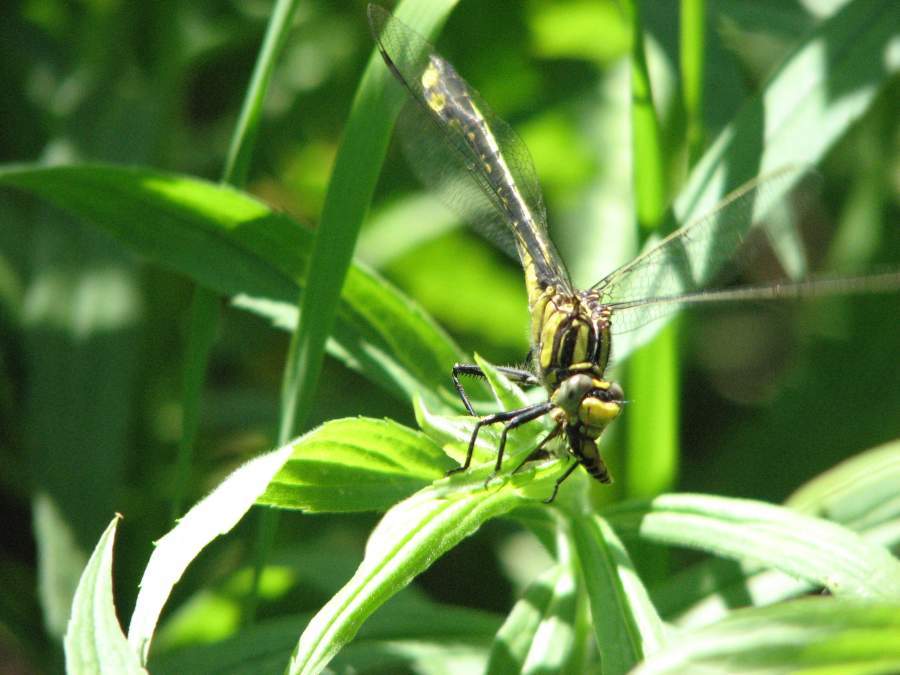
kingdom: Animalia
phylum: Arthropoda
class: Insecta
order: Odonata
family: Gomphidae
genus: Gomphurus
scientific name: Gomphurus fraternus
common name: Midland clubtail
